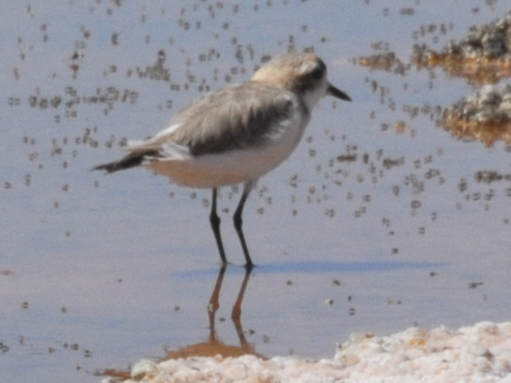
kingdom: Animalia
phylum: Chordata
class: Aves
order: Charadriiformes
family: Charadriidae
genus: Anarhynchus
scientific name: Anarhynchus
